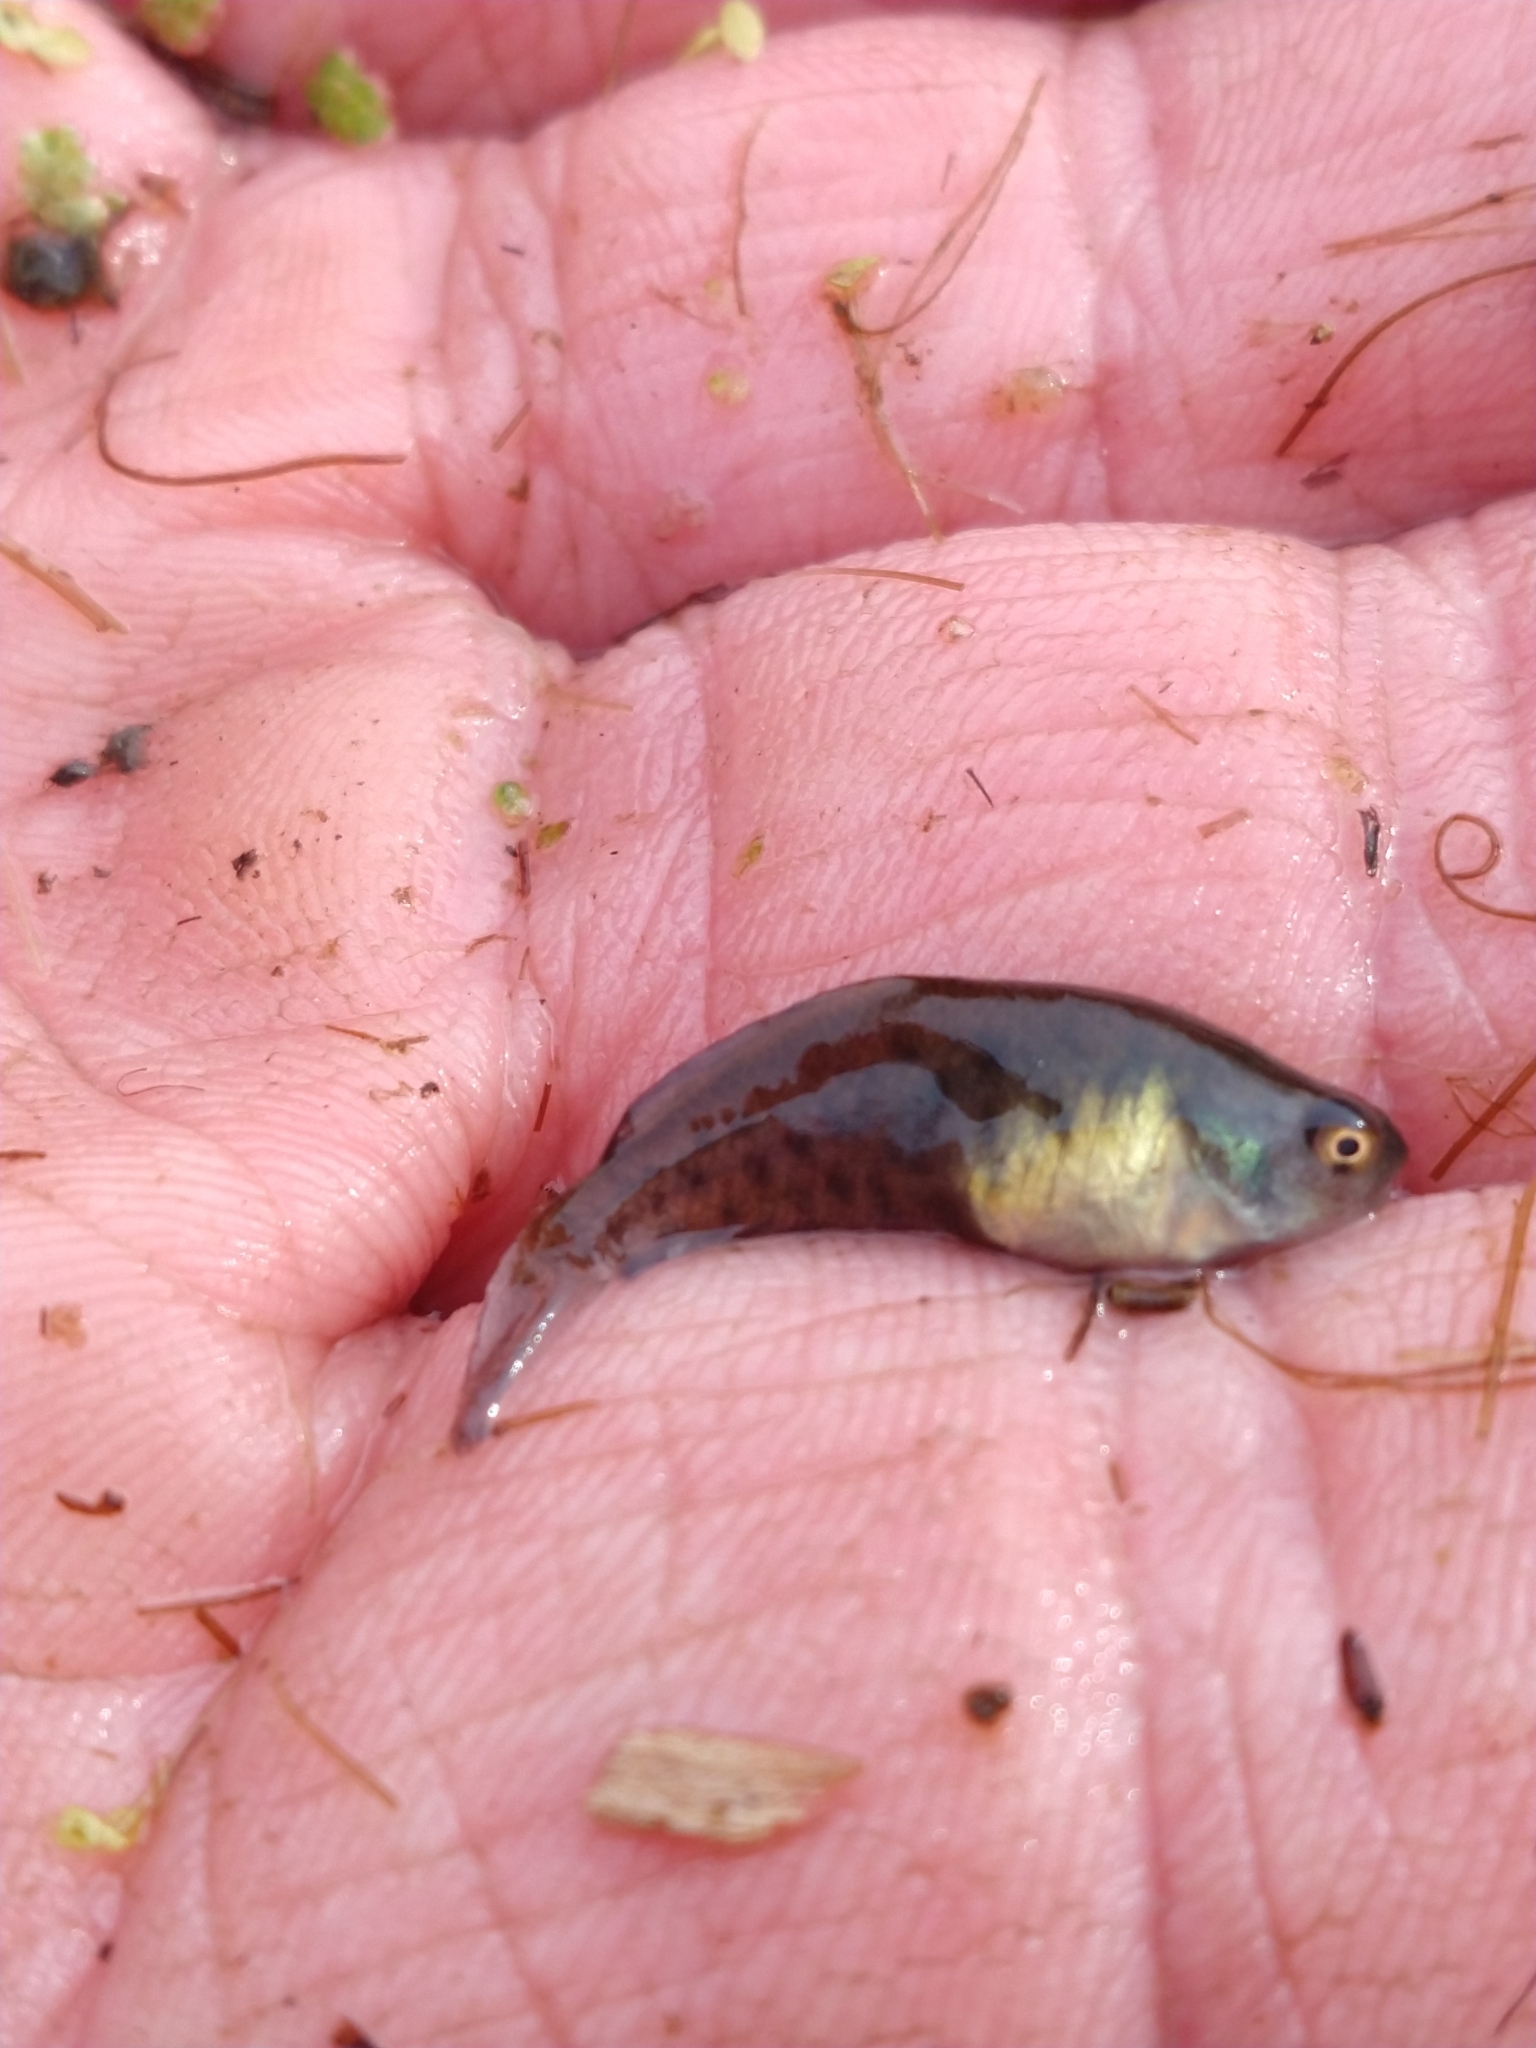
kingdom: Animalia
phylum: Chordata
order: Cyprinodontiformes
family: Rivulidae
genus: Austrolebias
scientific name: Austrolebias bellottii
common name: Argentine pearlfish
